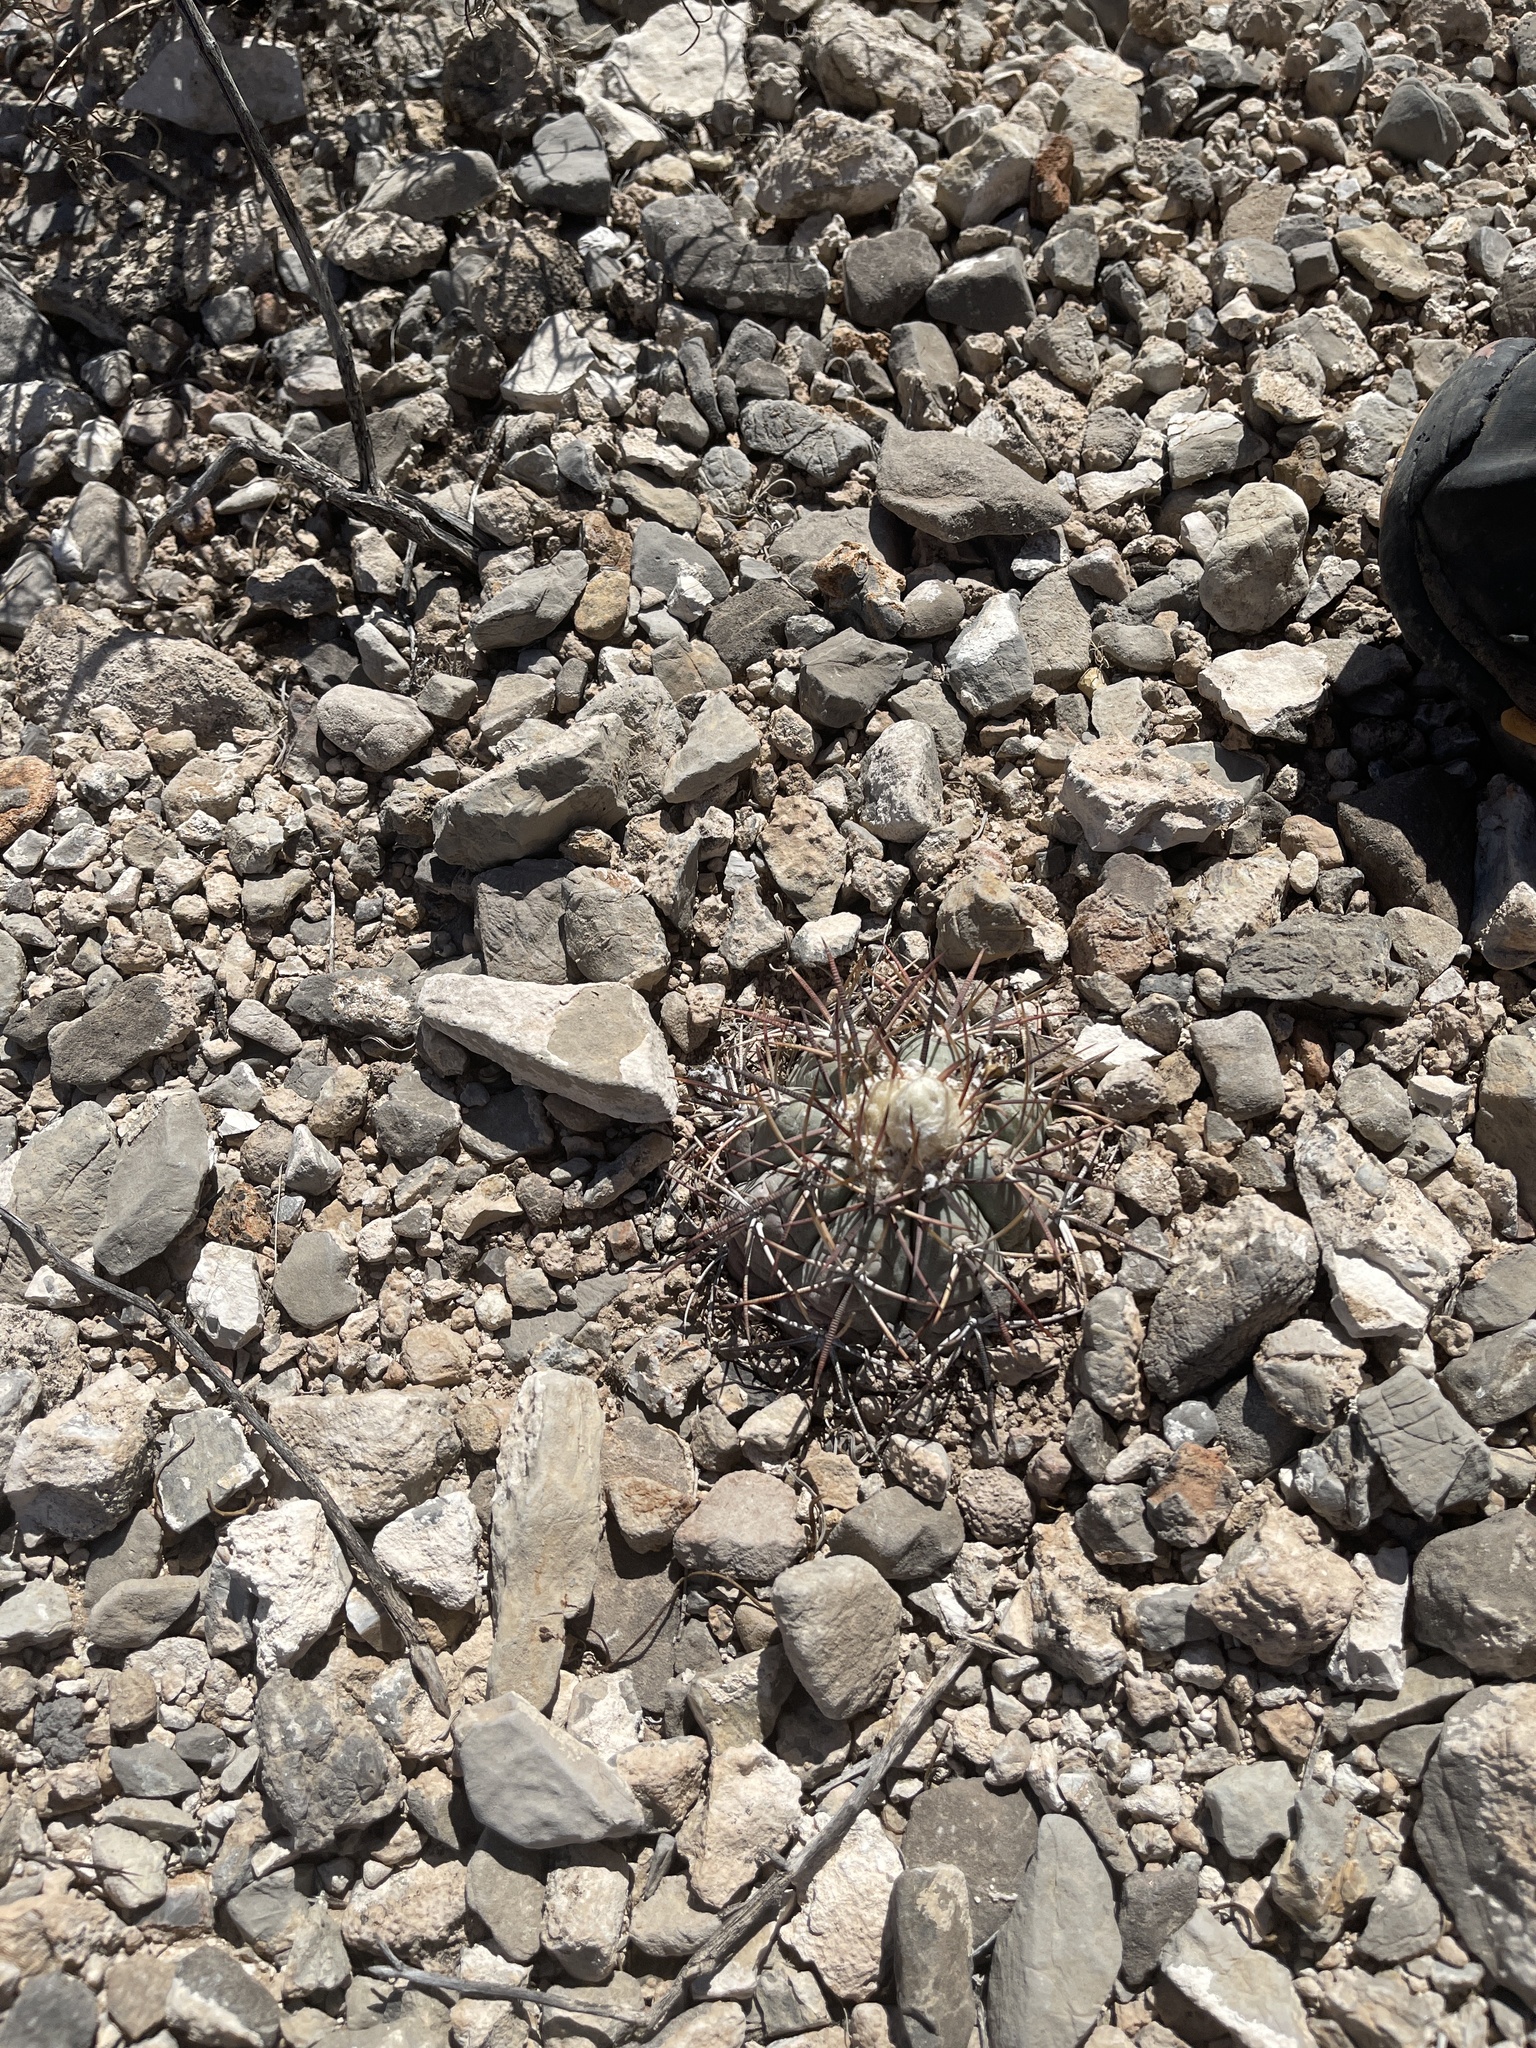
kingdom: Plantae
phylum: Tracheophyta
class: Magnoliopsida
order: Caryophyllales
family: Cactaceae
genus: Echinocactus
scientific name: Echinocactus horizonthalonius
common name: Devilshead
